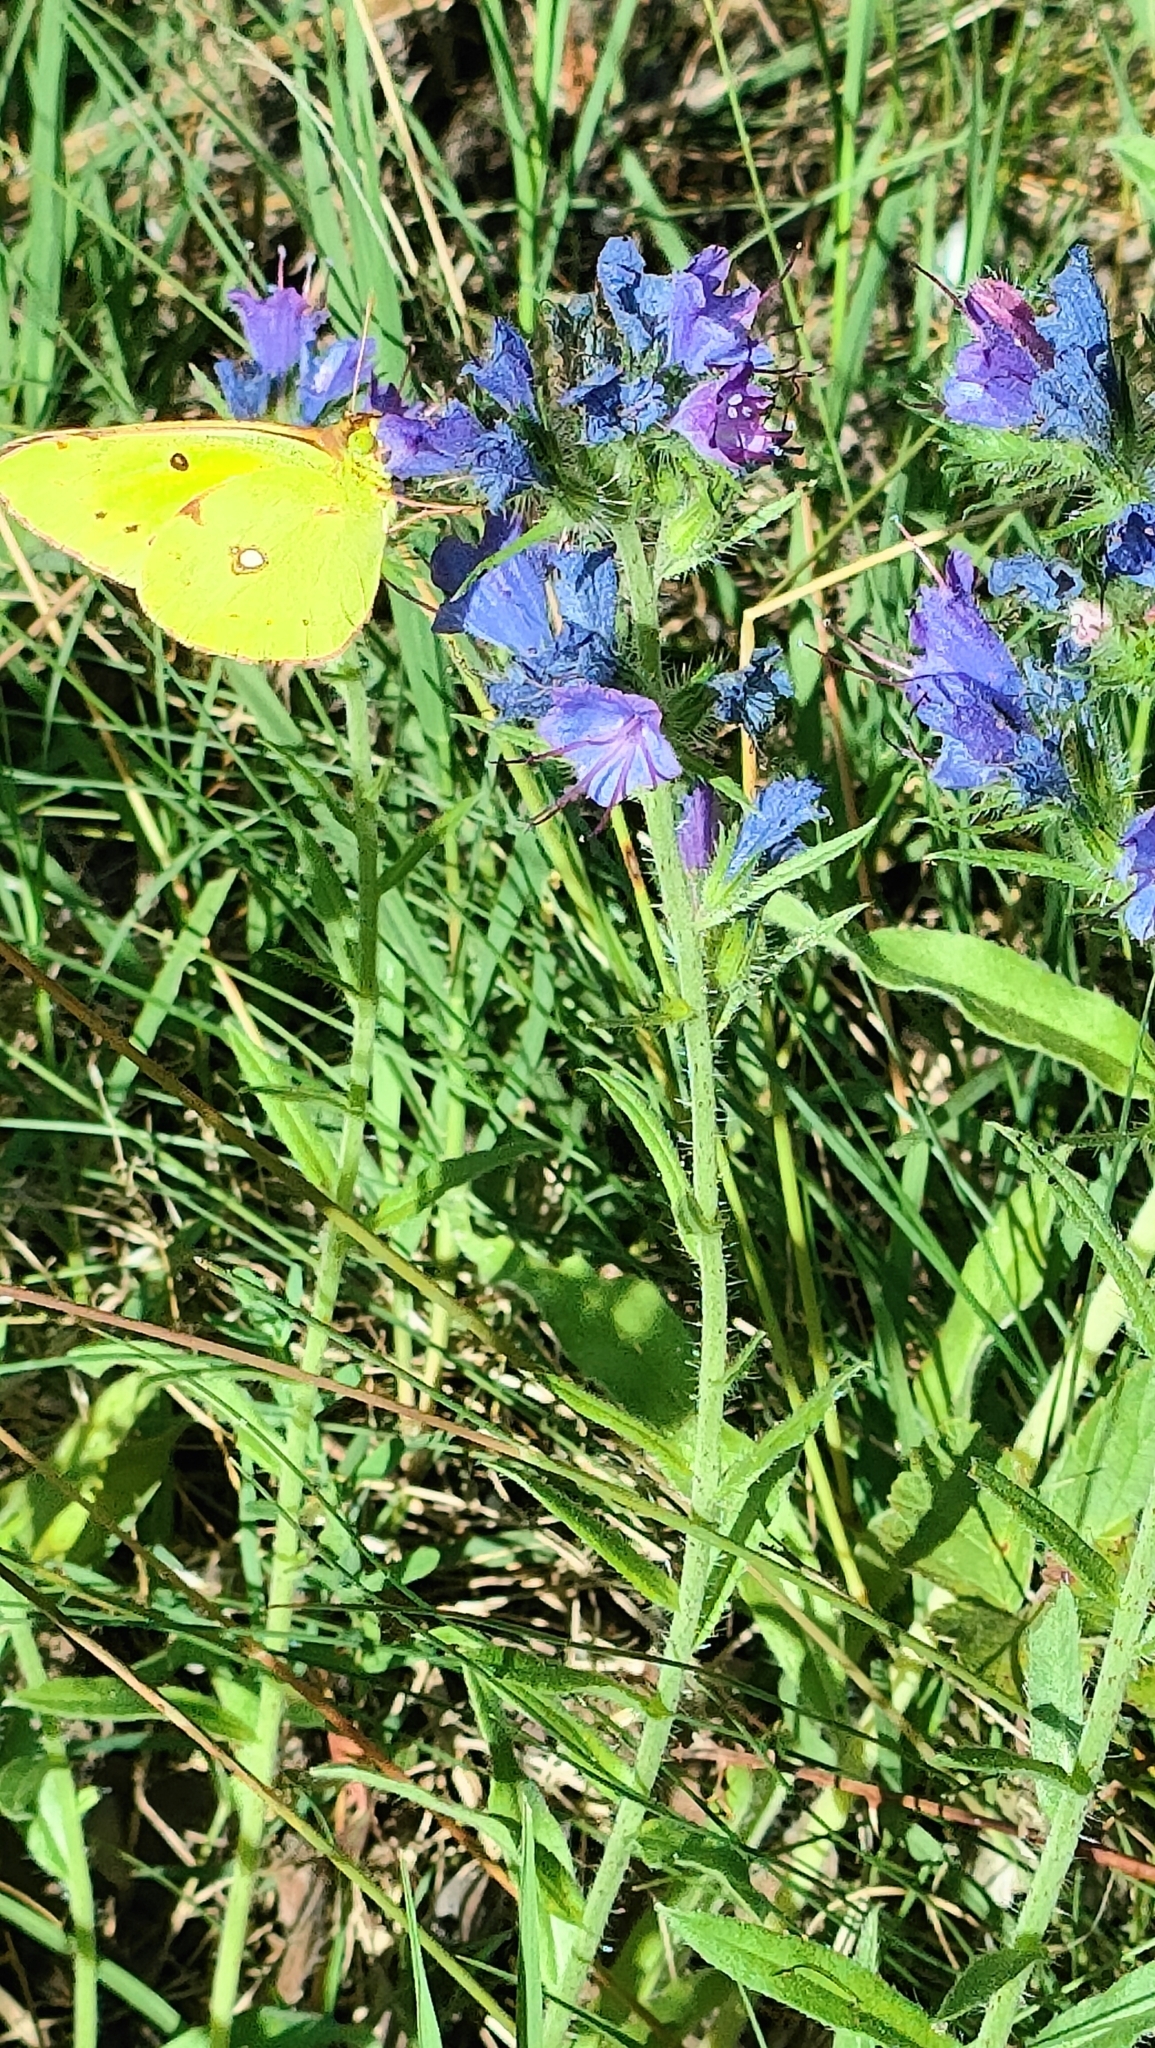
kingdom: Animalia
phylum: Arthropoda
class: Insecta
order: Lepidoptera
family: Pieridae
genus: Colias
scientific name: Colias croceus
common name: Clouded yellow
